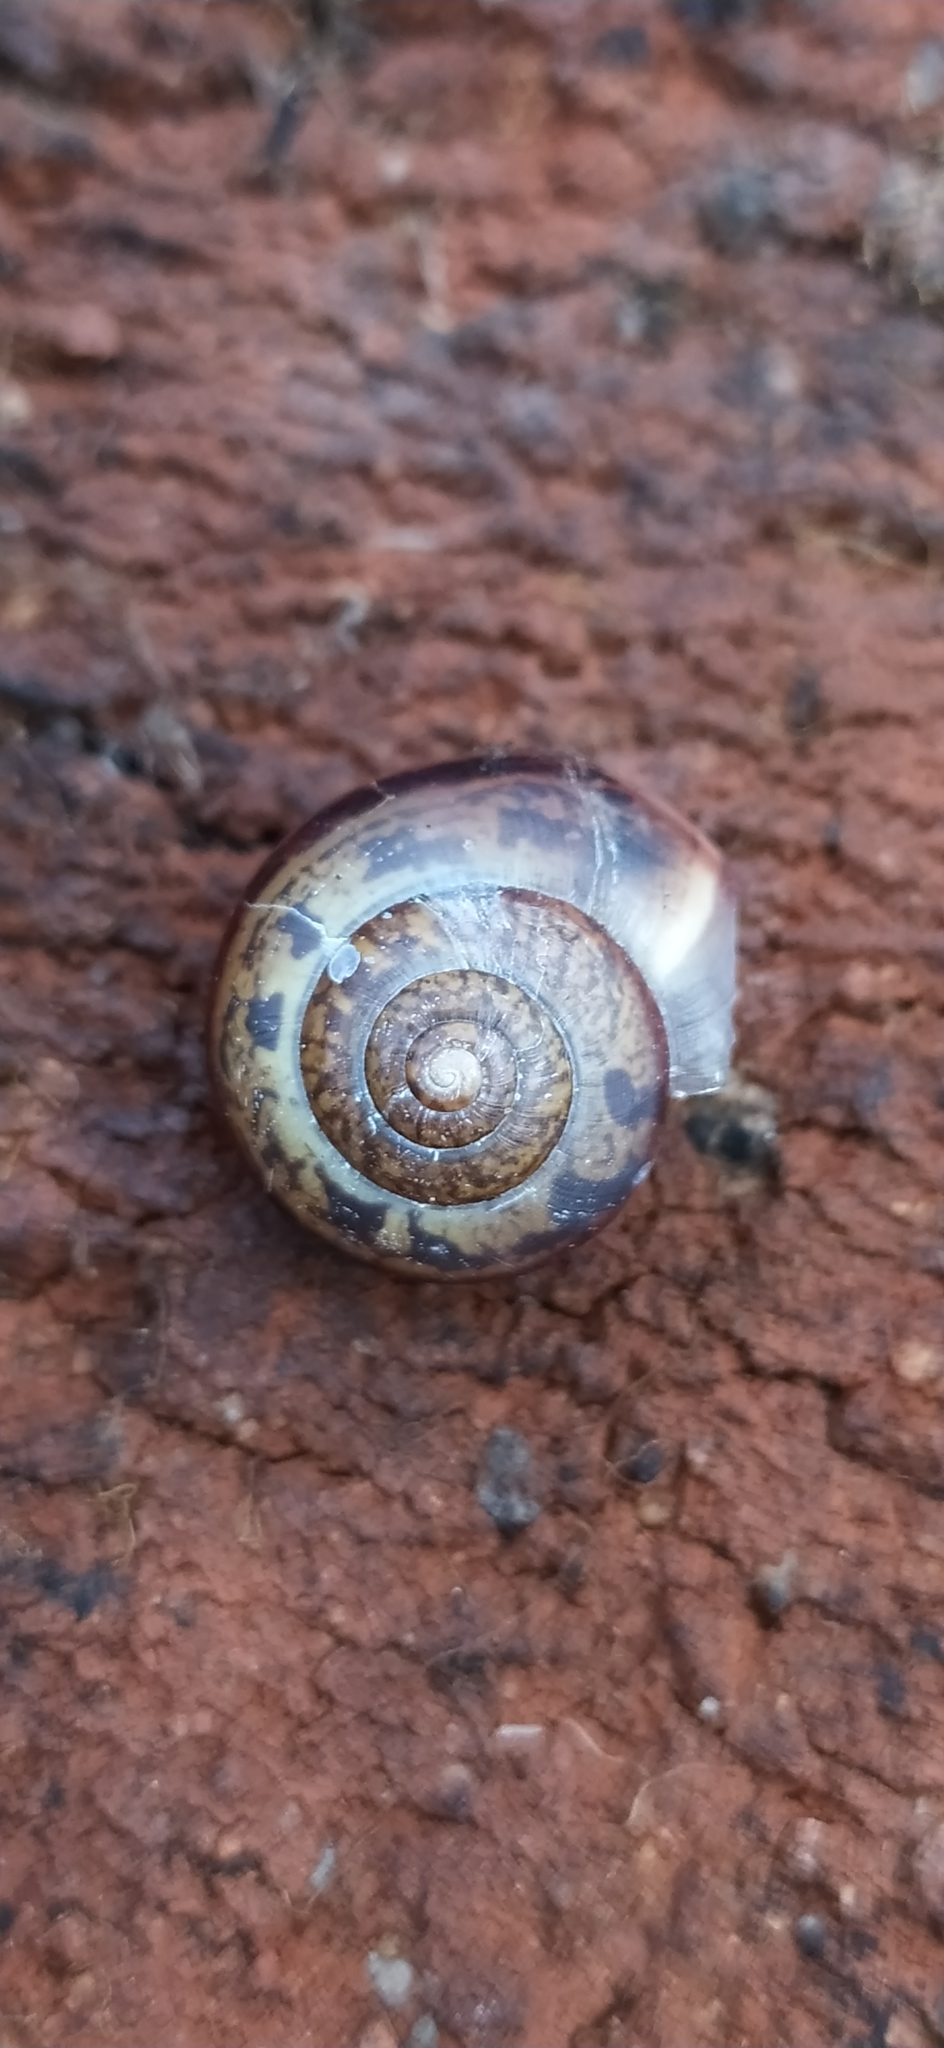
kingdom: Animalia
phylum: Mollusca
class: Gastropoda
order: Stylommatophora
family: Camaenidae
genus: Fruticicola
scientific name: Fruticicola fruticum
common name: Bush snail
